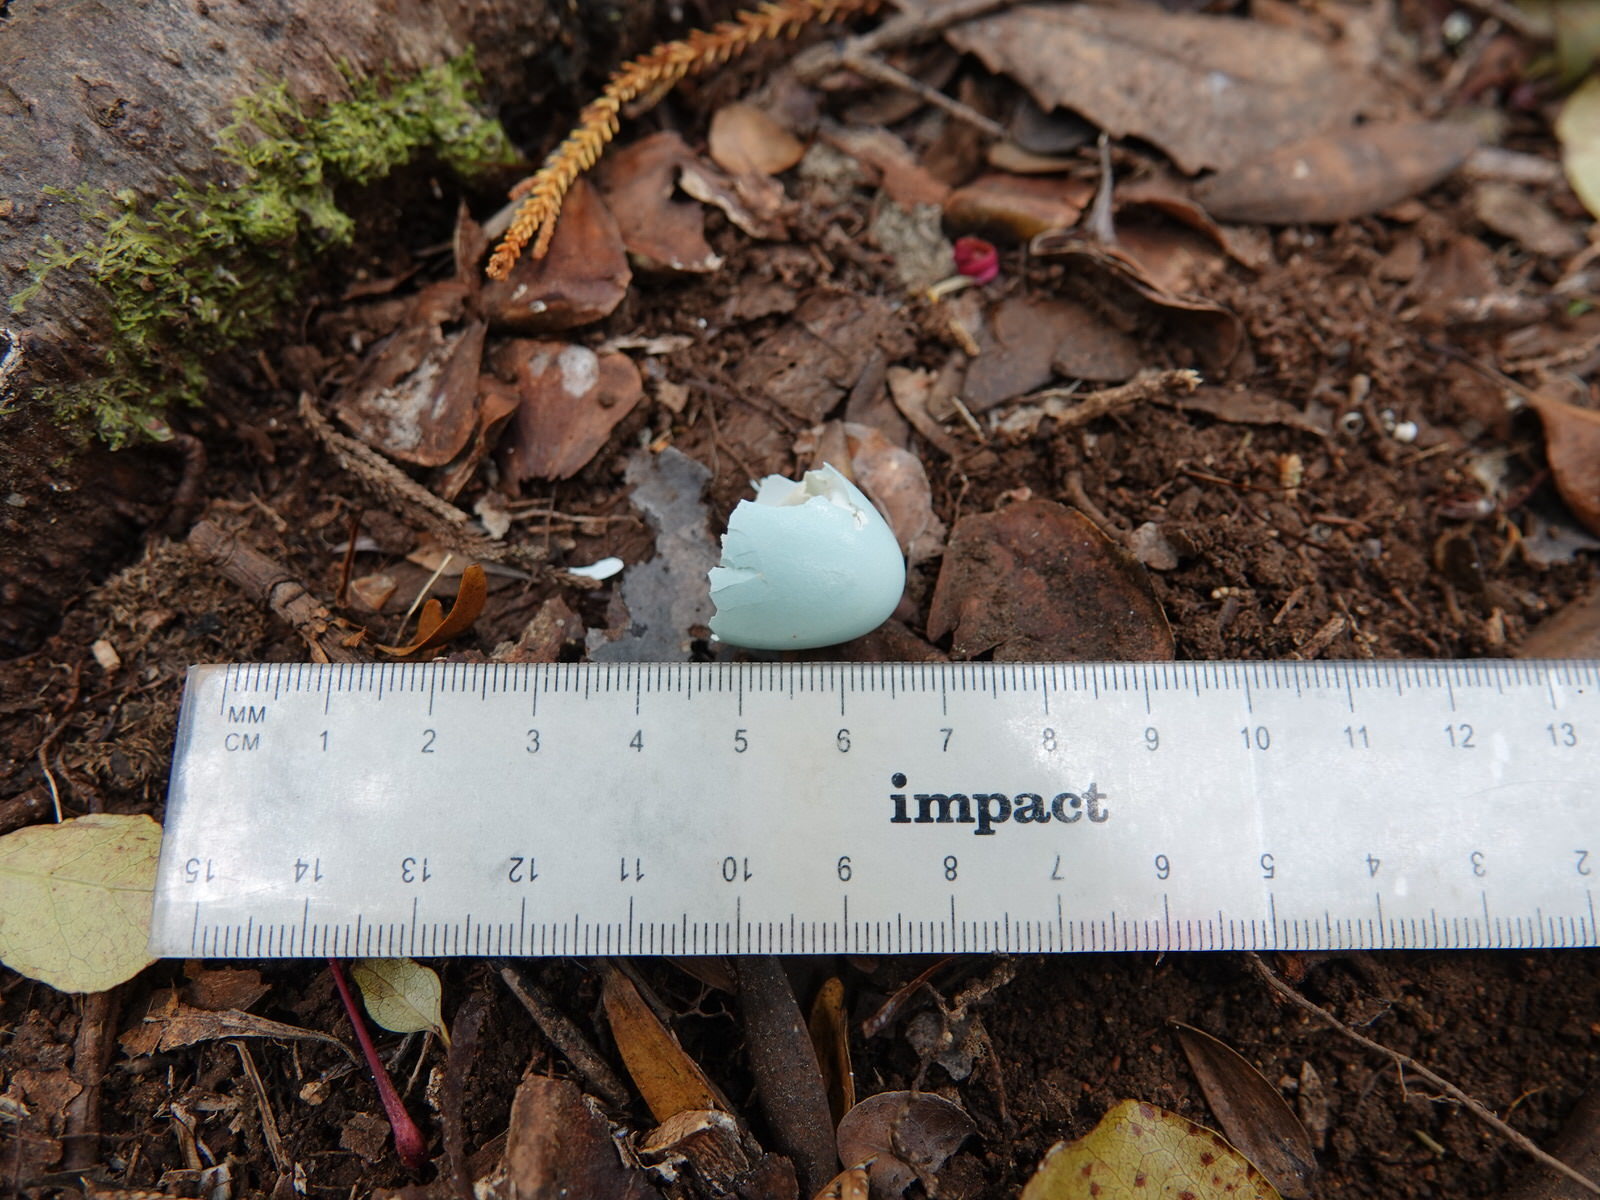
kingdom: Animalia
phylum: Chordata
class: Aves
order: Passeriformes
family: Sturnidae
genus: Sturnus
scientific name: Sturnus vulgaris
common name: Common starling
